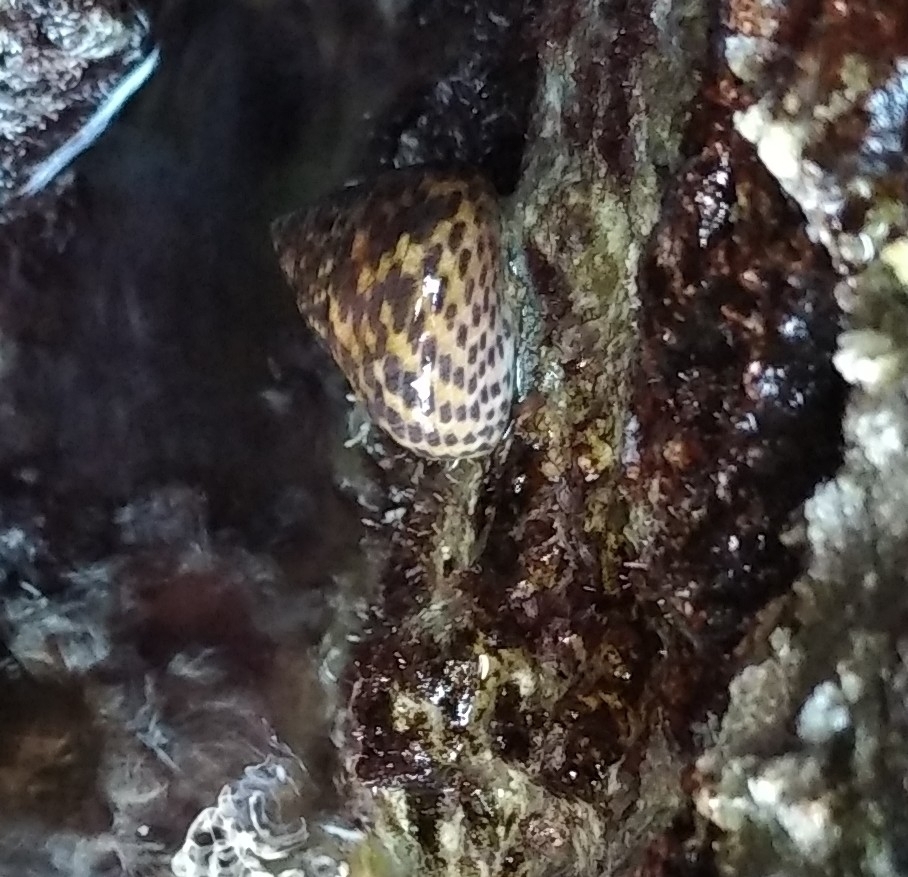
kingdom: Animalia
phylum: Mollusca
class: Gastropoda
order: Trochida
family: Trochidae
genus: Phorcus
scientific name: Phorcus turbinatus
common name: Turbinate monodont
